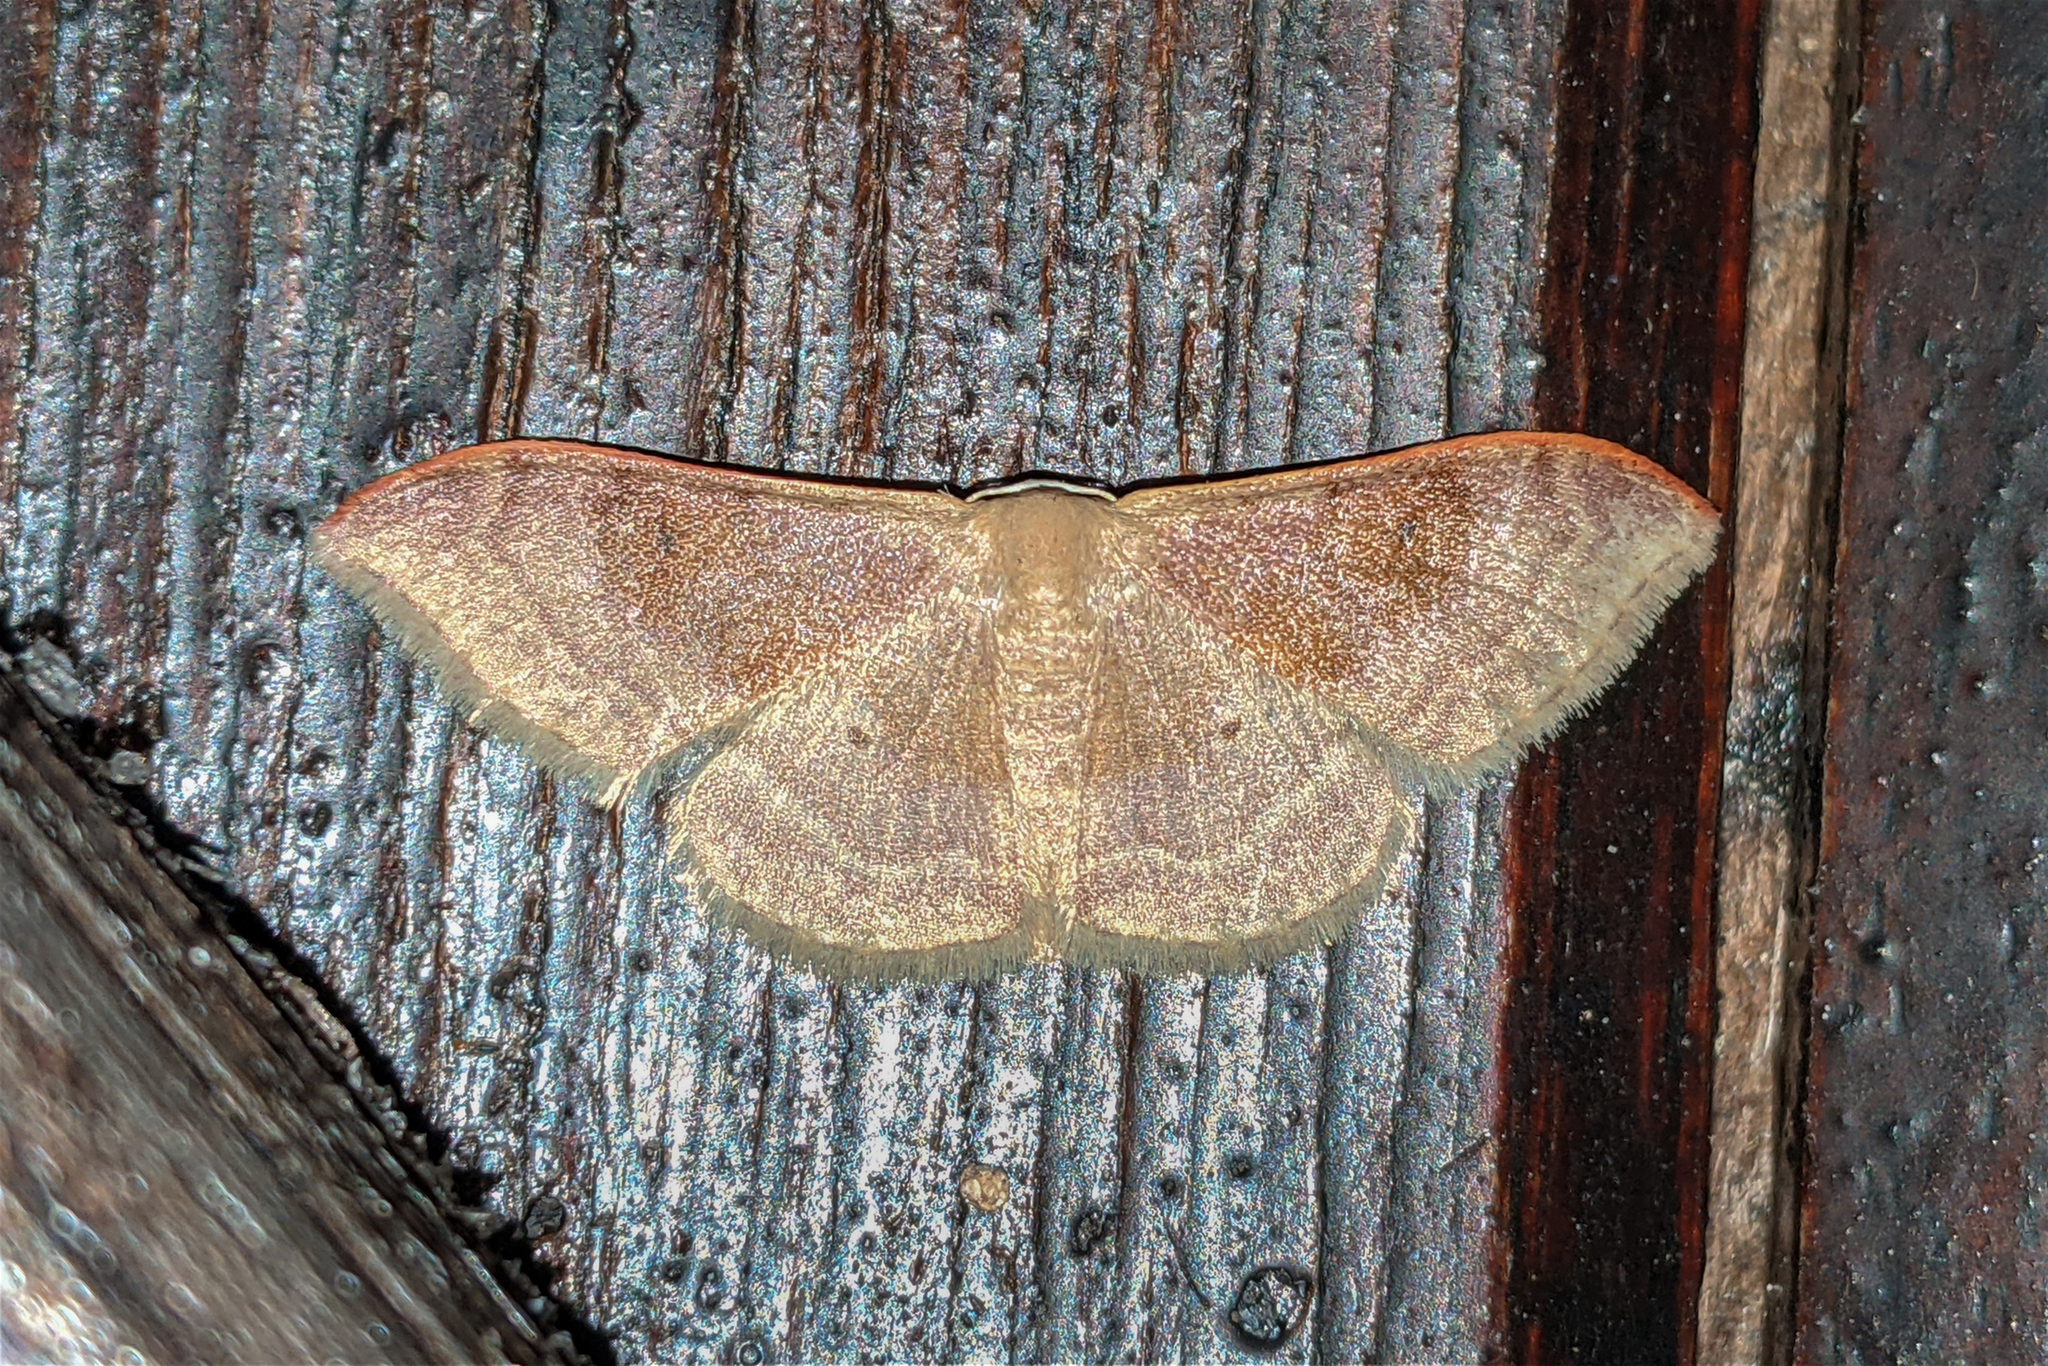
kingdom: Animalia
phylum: Arthropoda
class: Insecta
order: Lepidoptera
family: Geometridae
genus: Idaea
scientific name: Idaea degeneraria
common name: Portland ribbon wave
